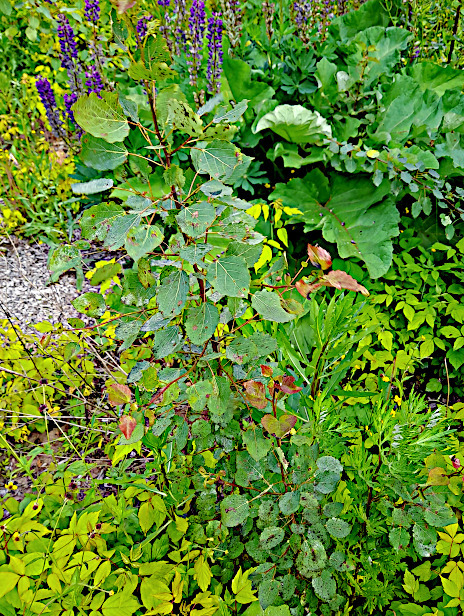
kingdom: Plantae
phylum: Tracheophyta
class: Magnoliopsida
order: Malpighiales
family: Salicaceae
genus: Populus
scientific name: Populus tremula
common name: European aspen
